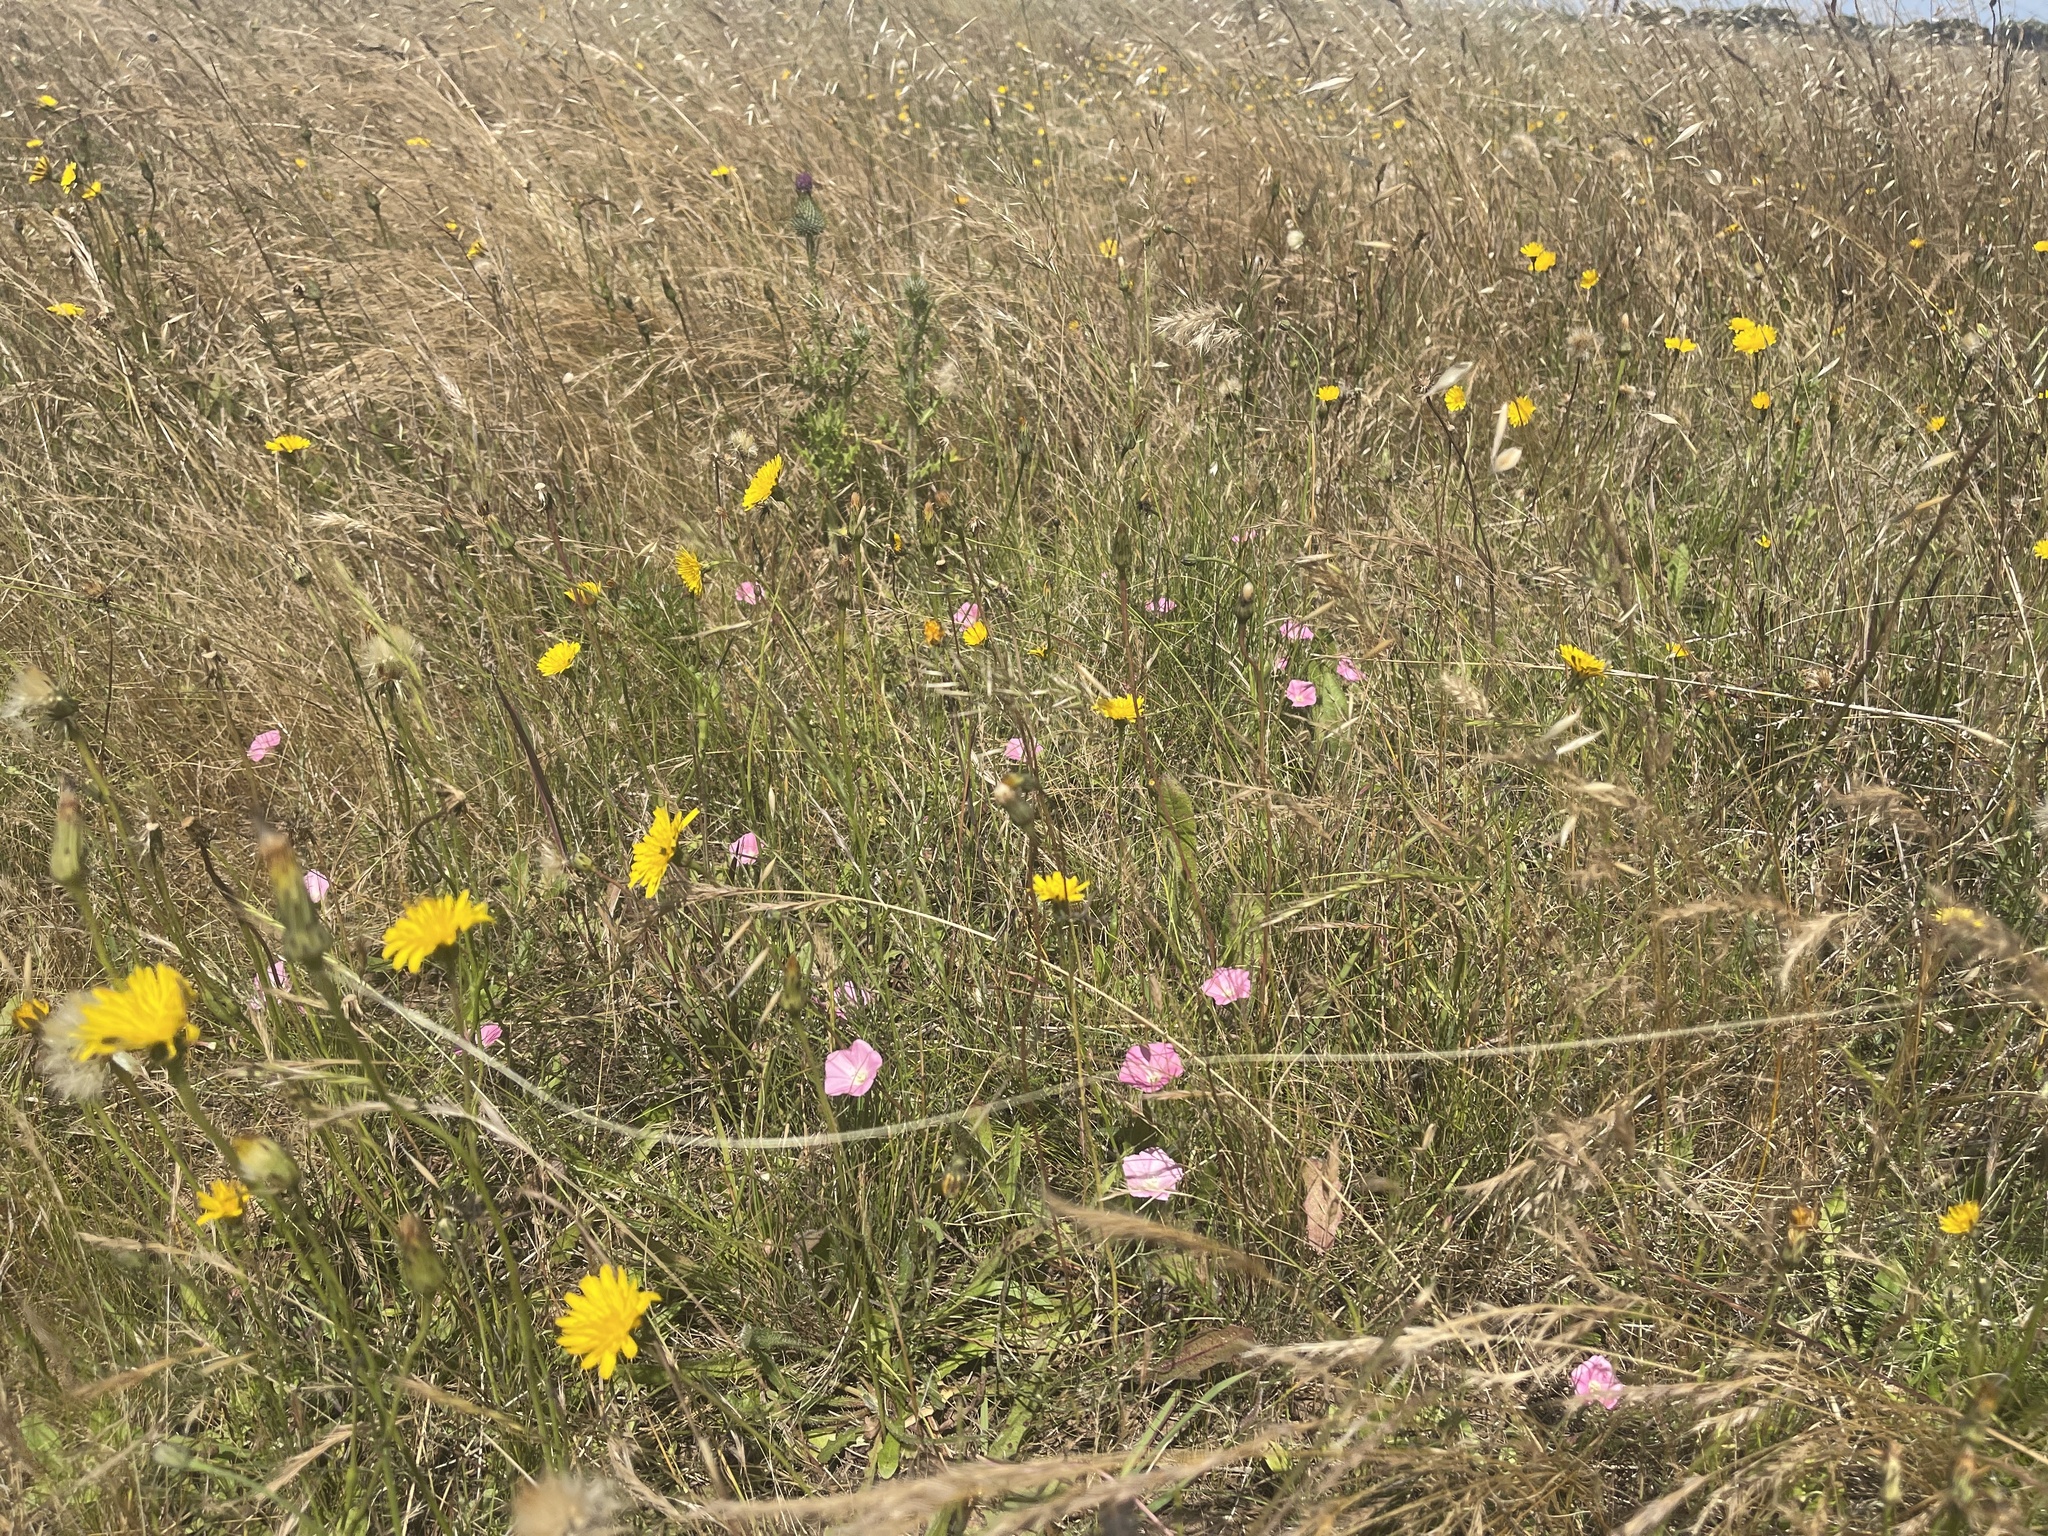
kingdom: Plantae
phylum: Tracheophyta
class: Magnoliopsida
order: Solanales
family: Convolvulaceae
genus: Convolvulus
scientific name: Convolvulus angustissimus
